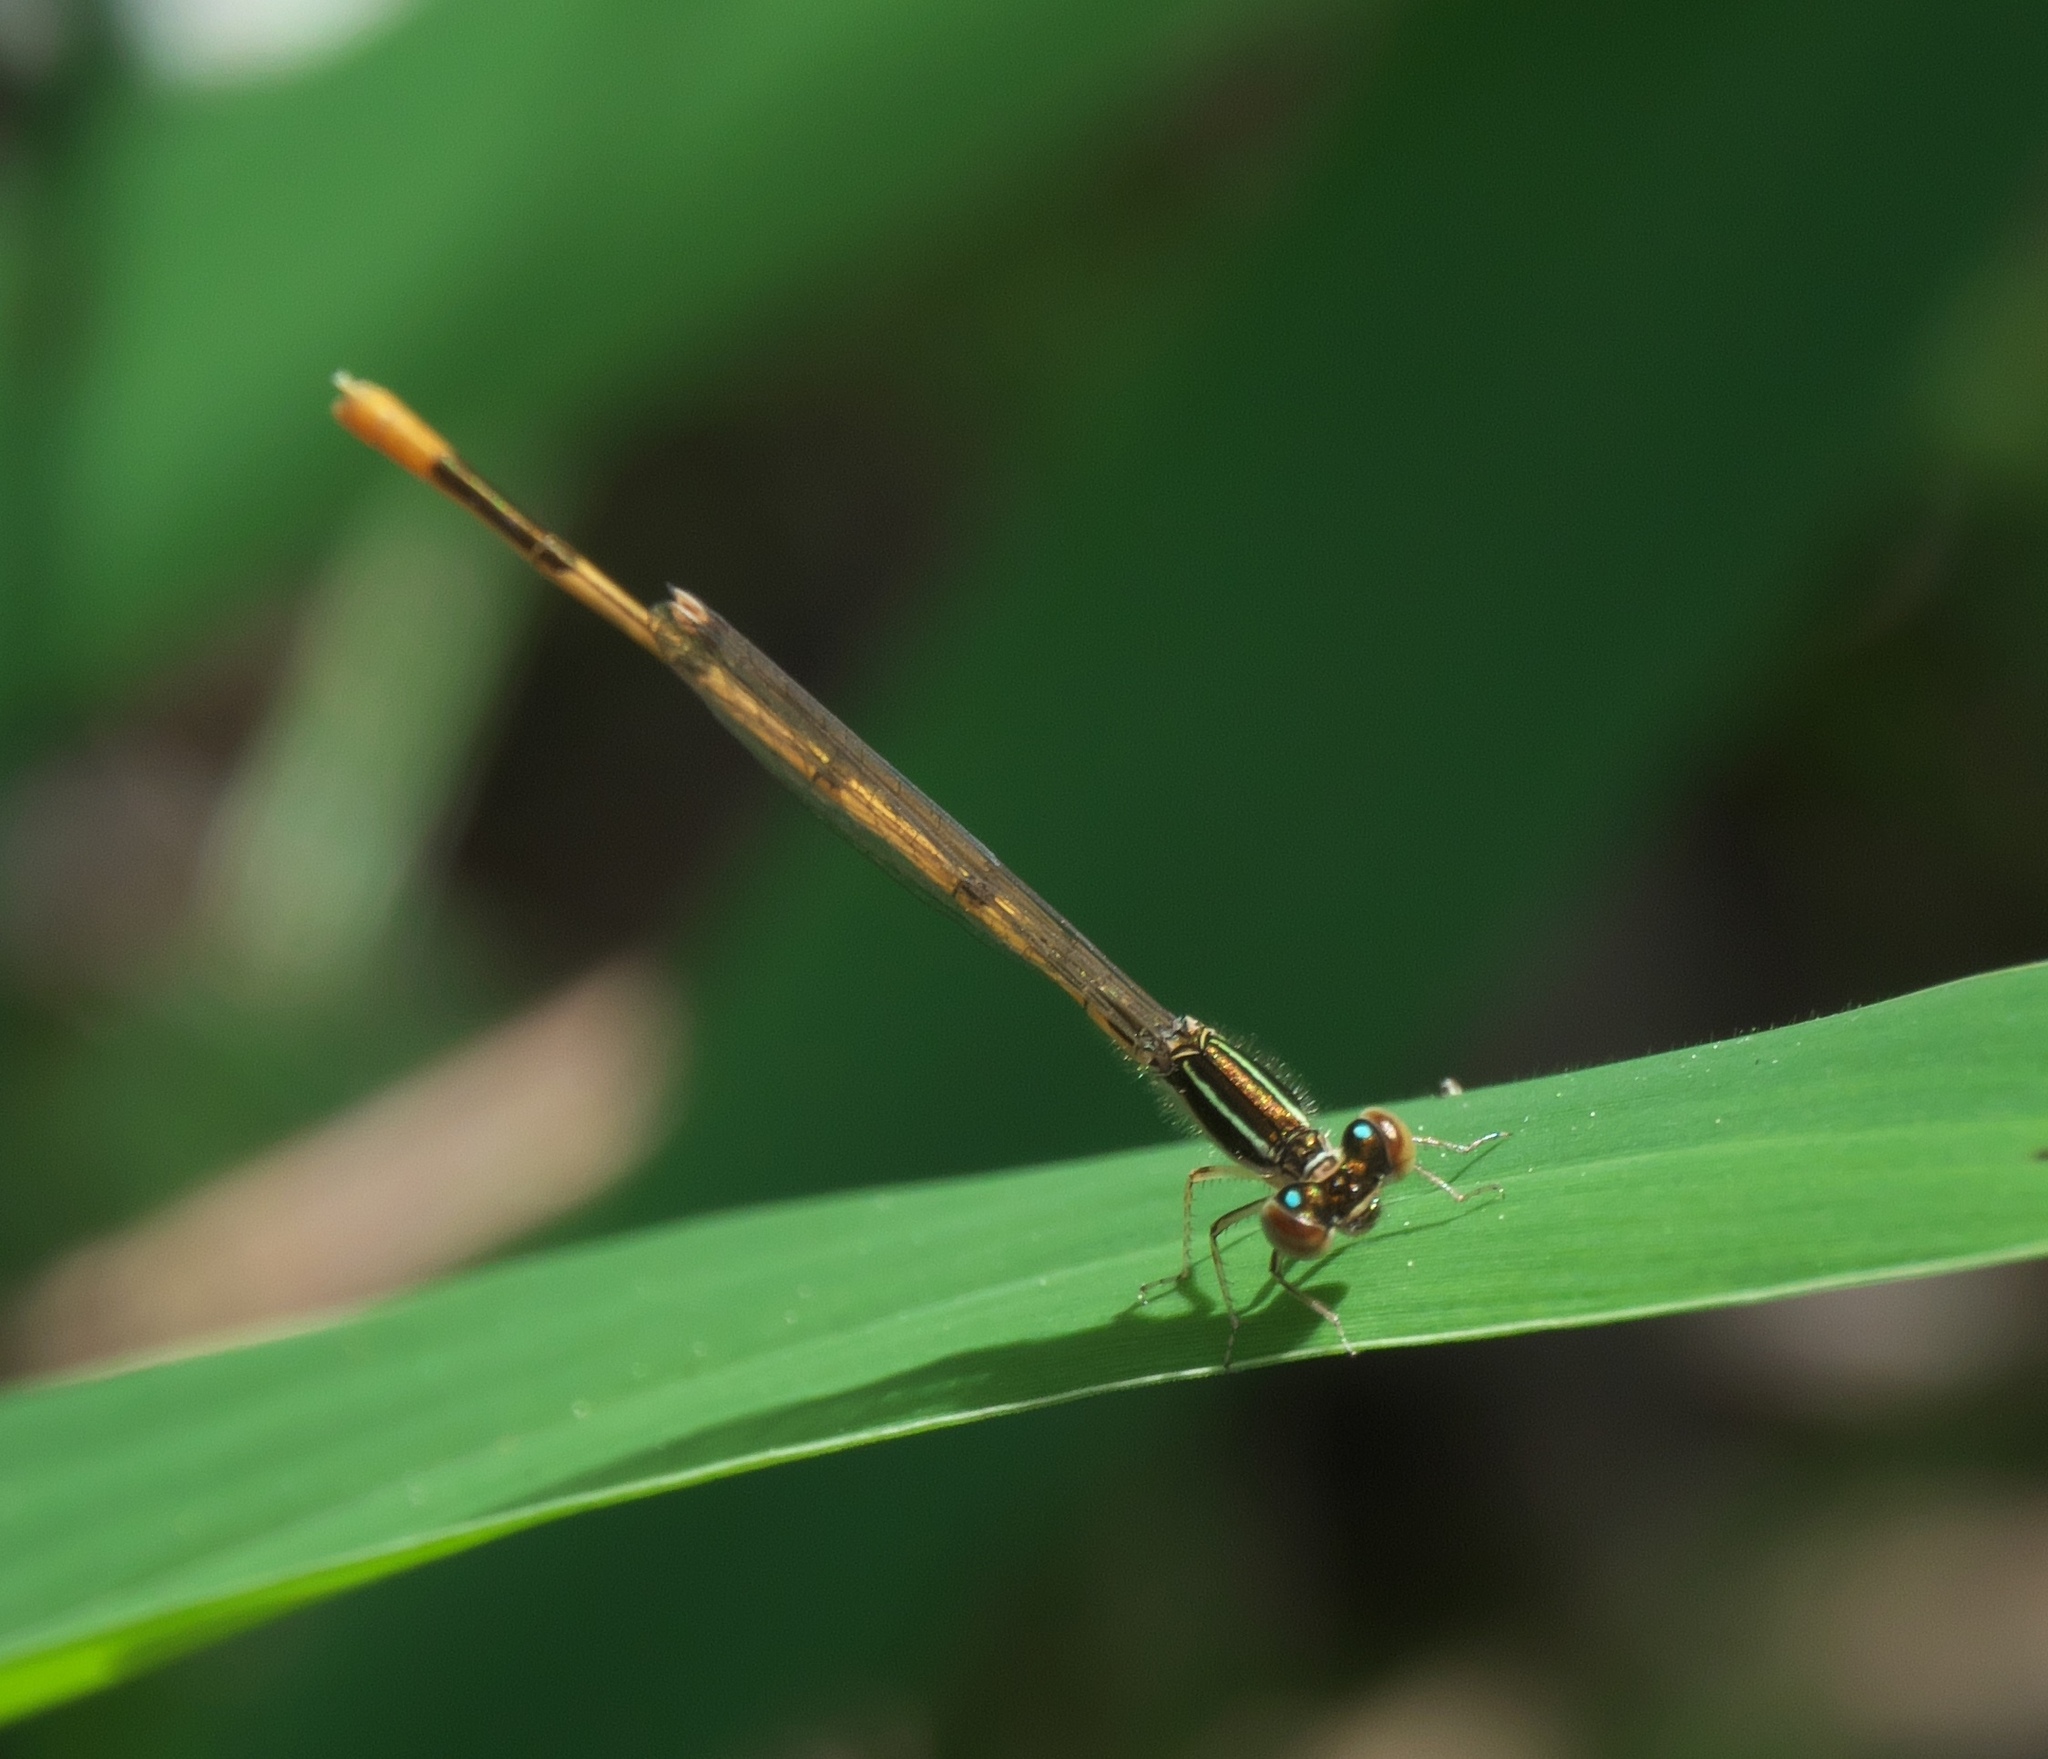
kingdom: Animalia
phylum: Arthropoda
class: Insecta
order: Odonata
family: Coenagrionidae
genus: Ischnura
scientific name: Ischnura hastata
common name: Citrine forktail
